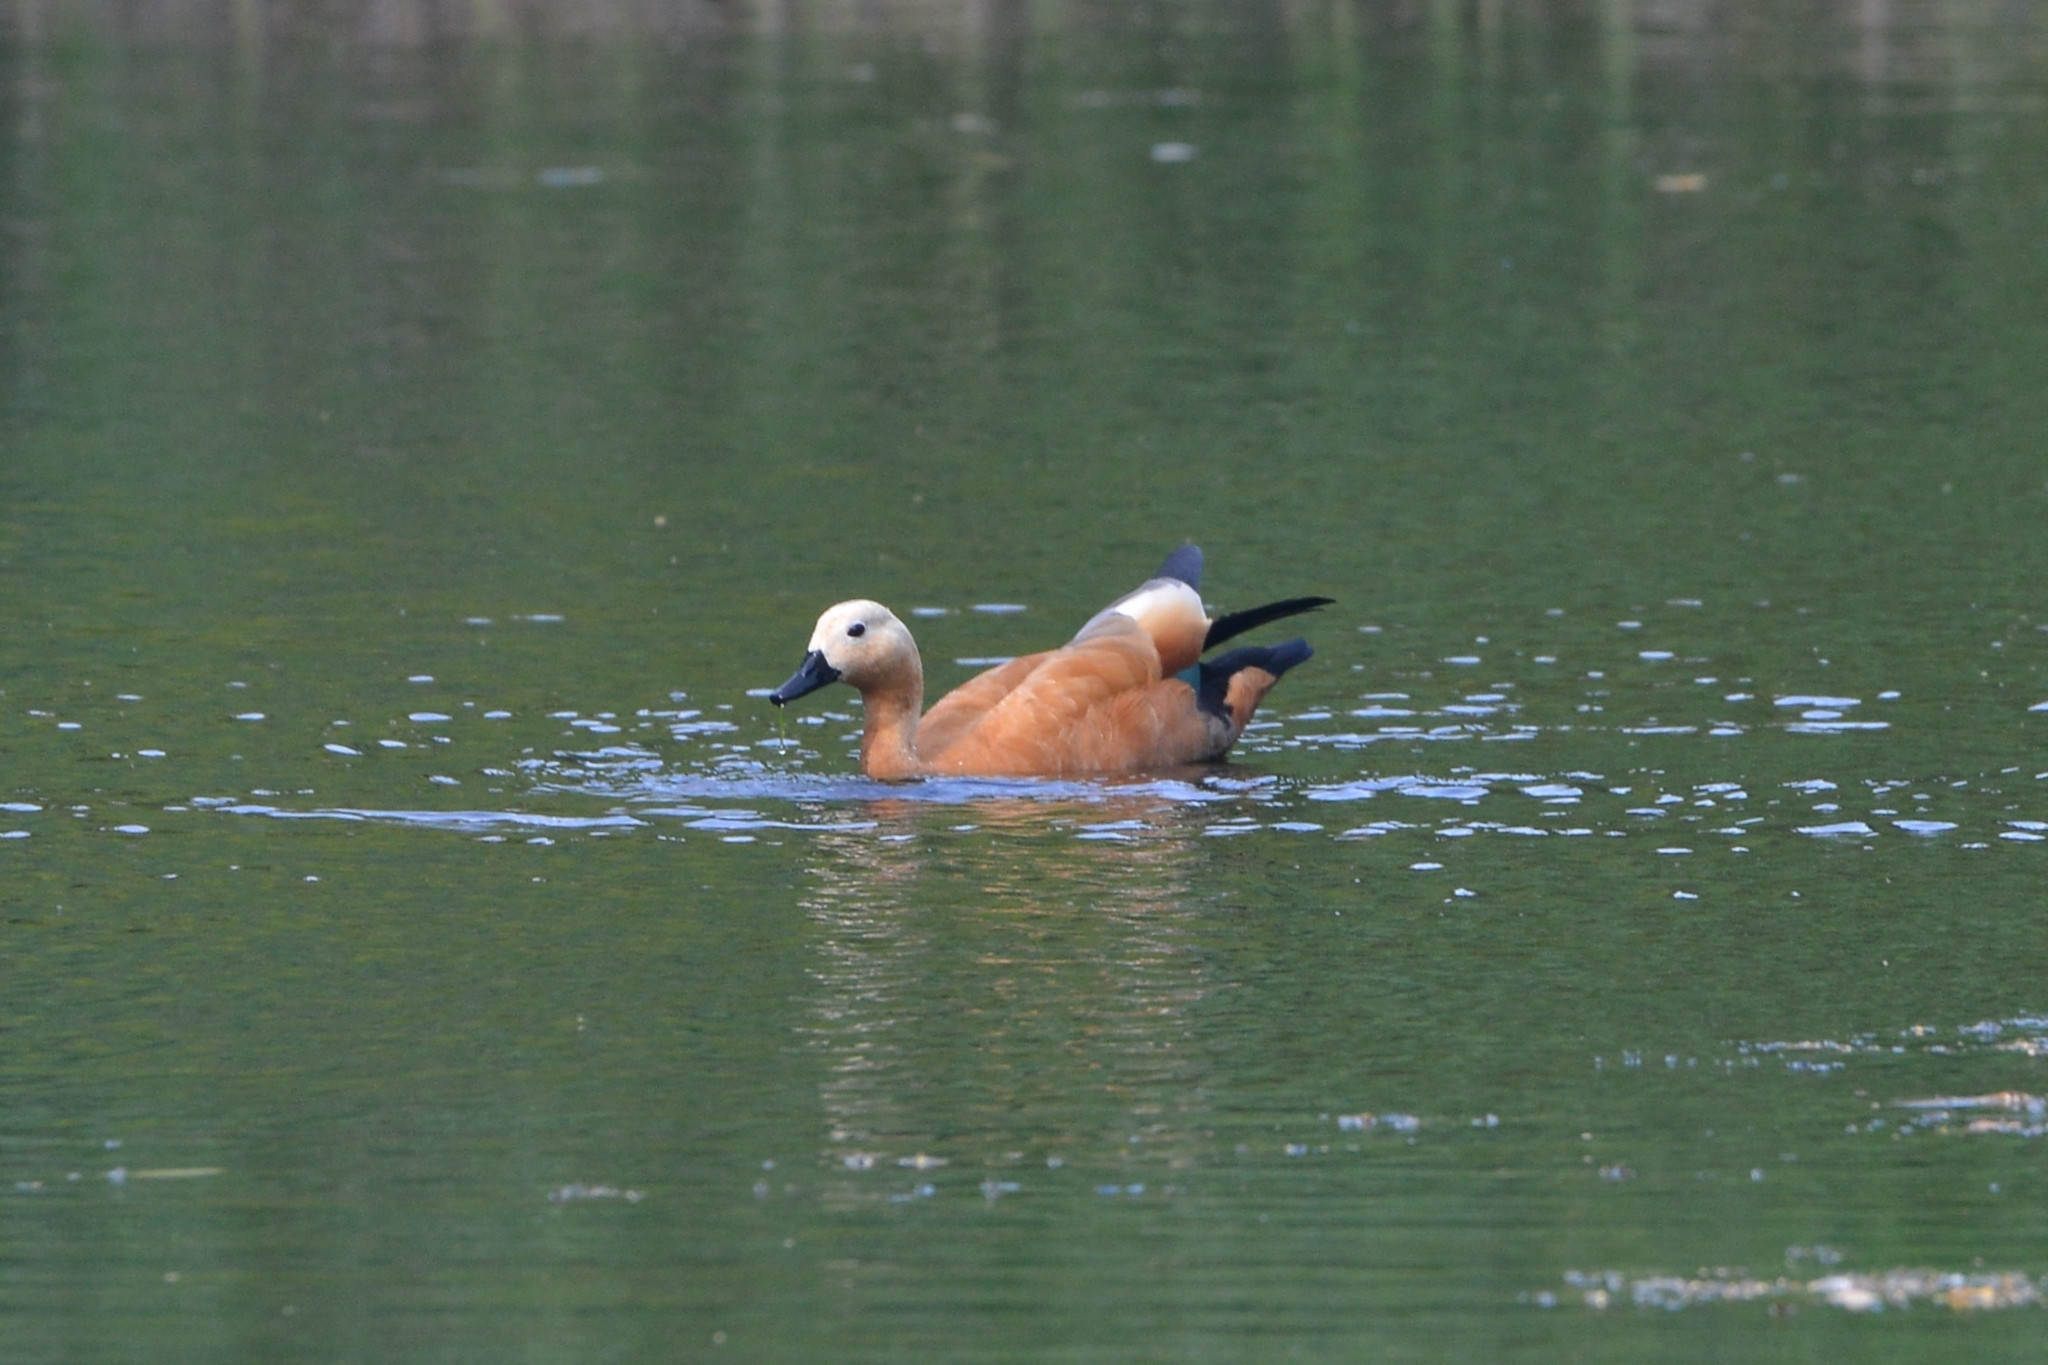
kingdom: Animalia
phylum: Chordata
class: Aves
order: Anseriformes
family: Anatidae
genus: Tadorna
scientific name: Tadorna ferruginea
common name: Ruddy shelduck
